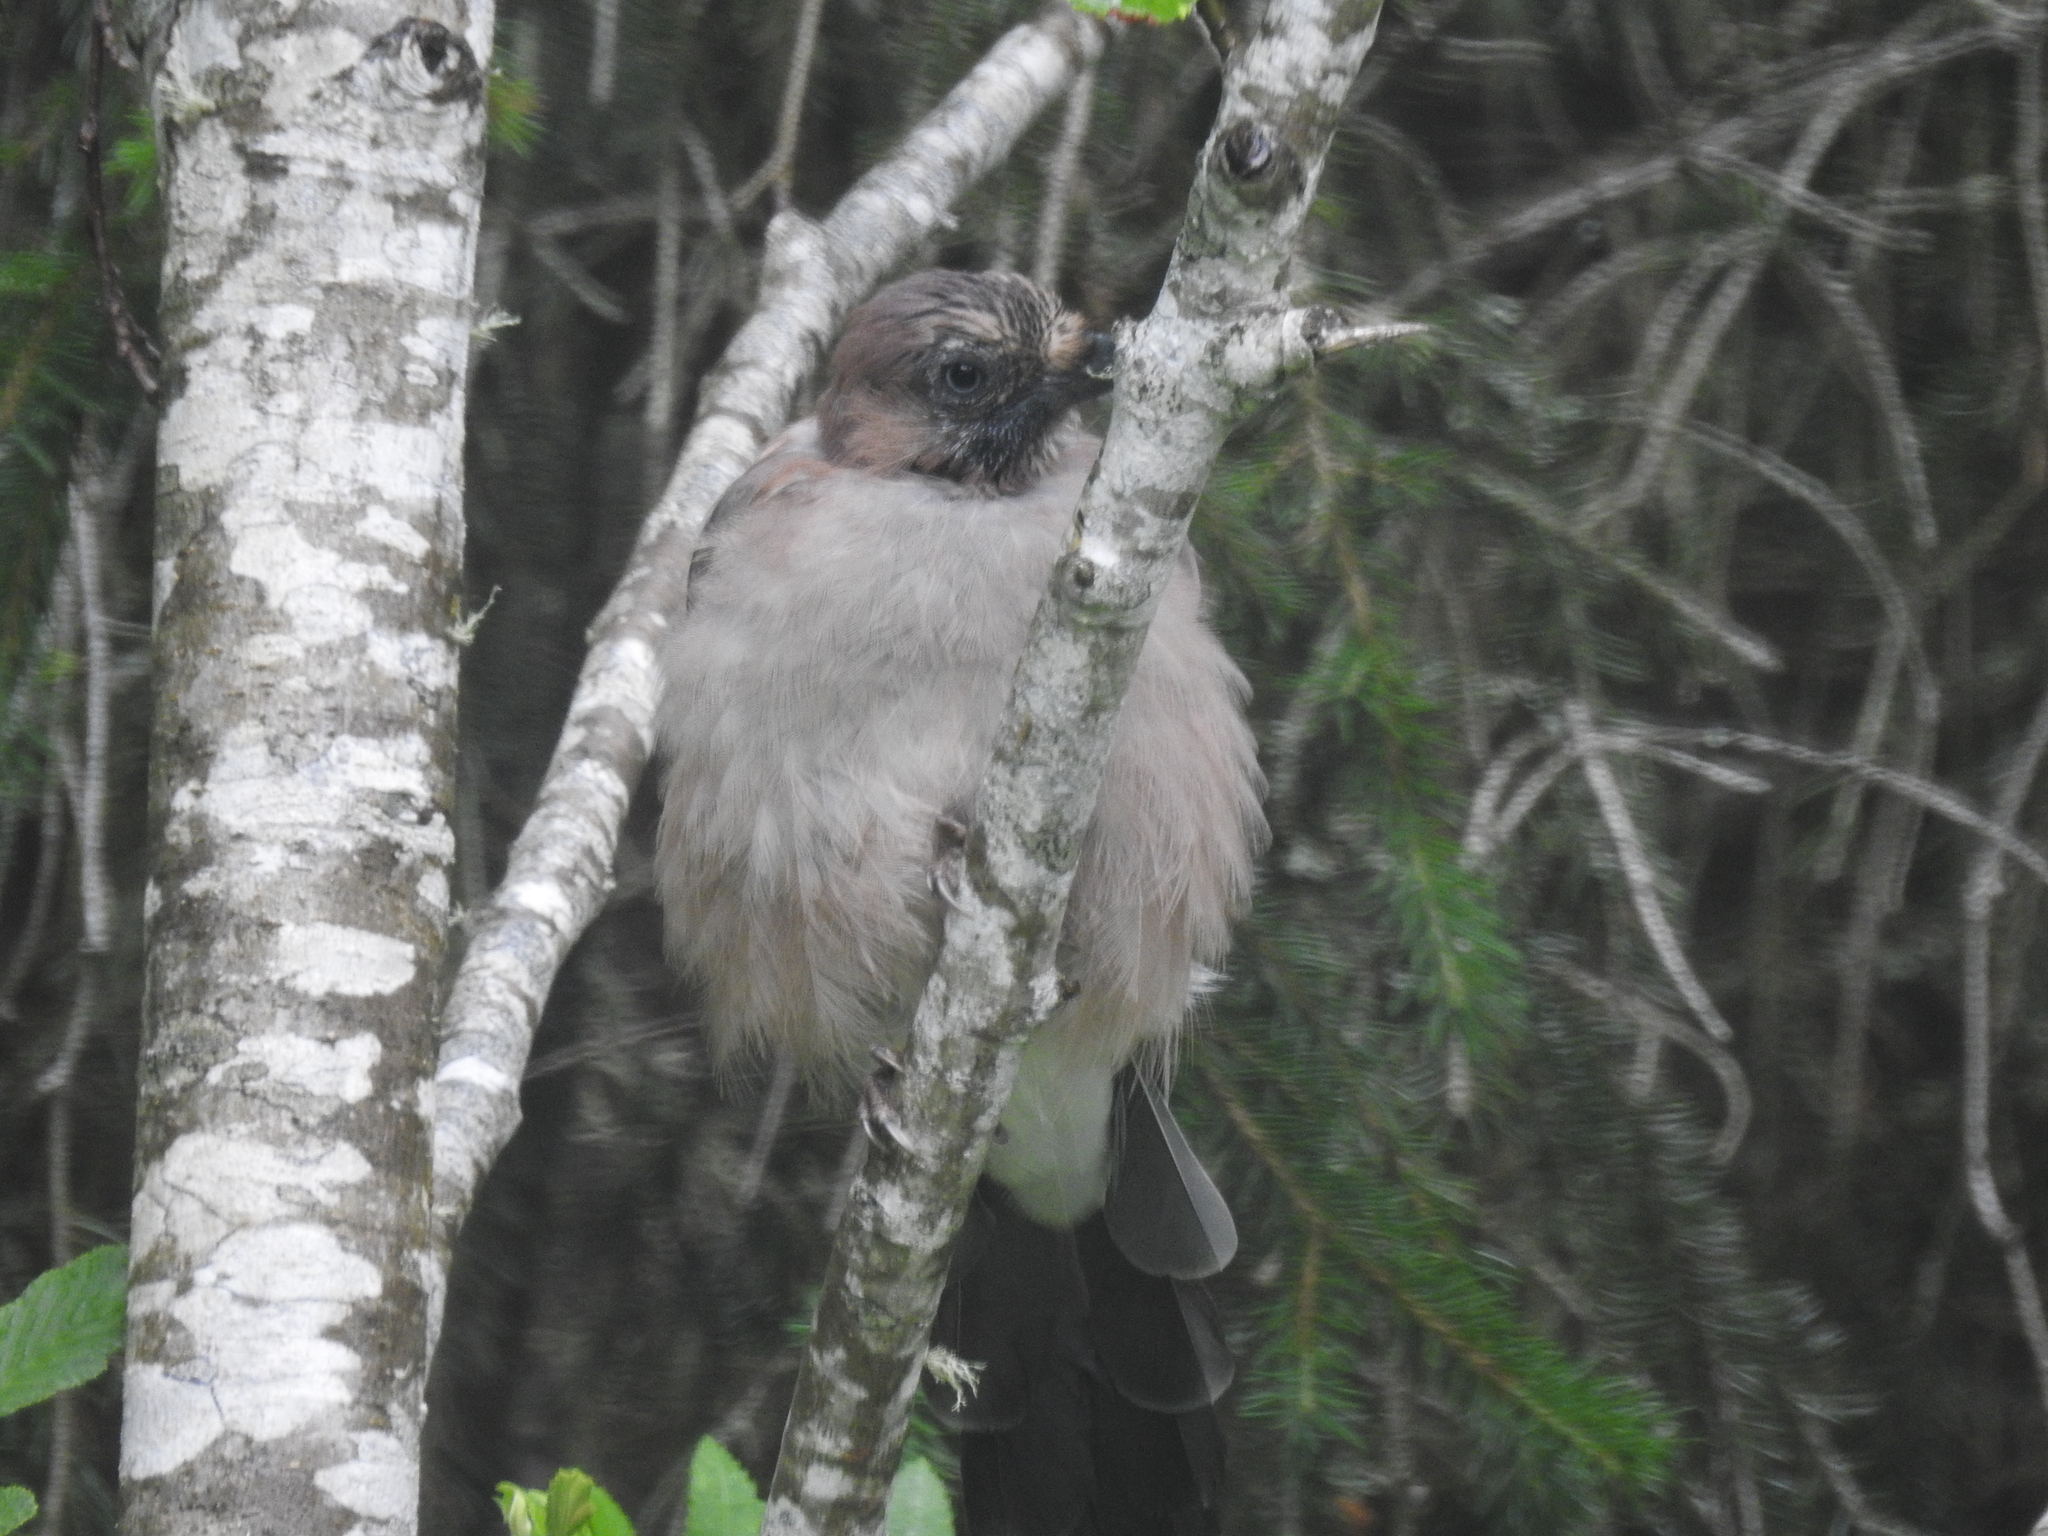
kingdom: Animalia
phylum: Chordata
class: Aves
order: Passeriformes
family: Corvidae
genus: Garrulus
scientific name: Garrulus glandarius
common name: Eurasian jay
